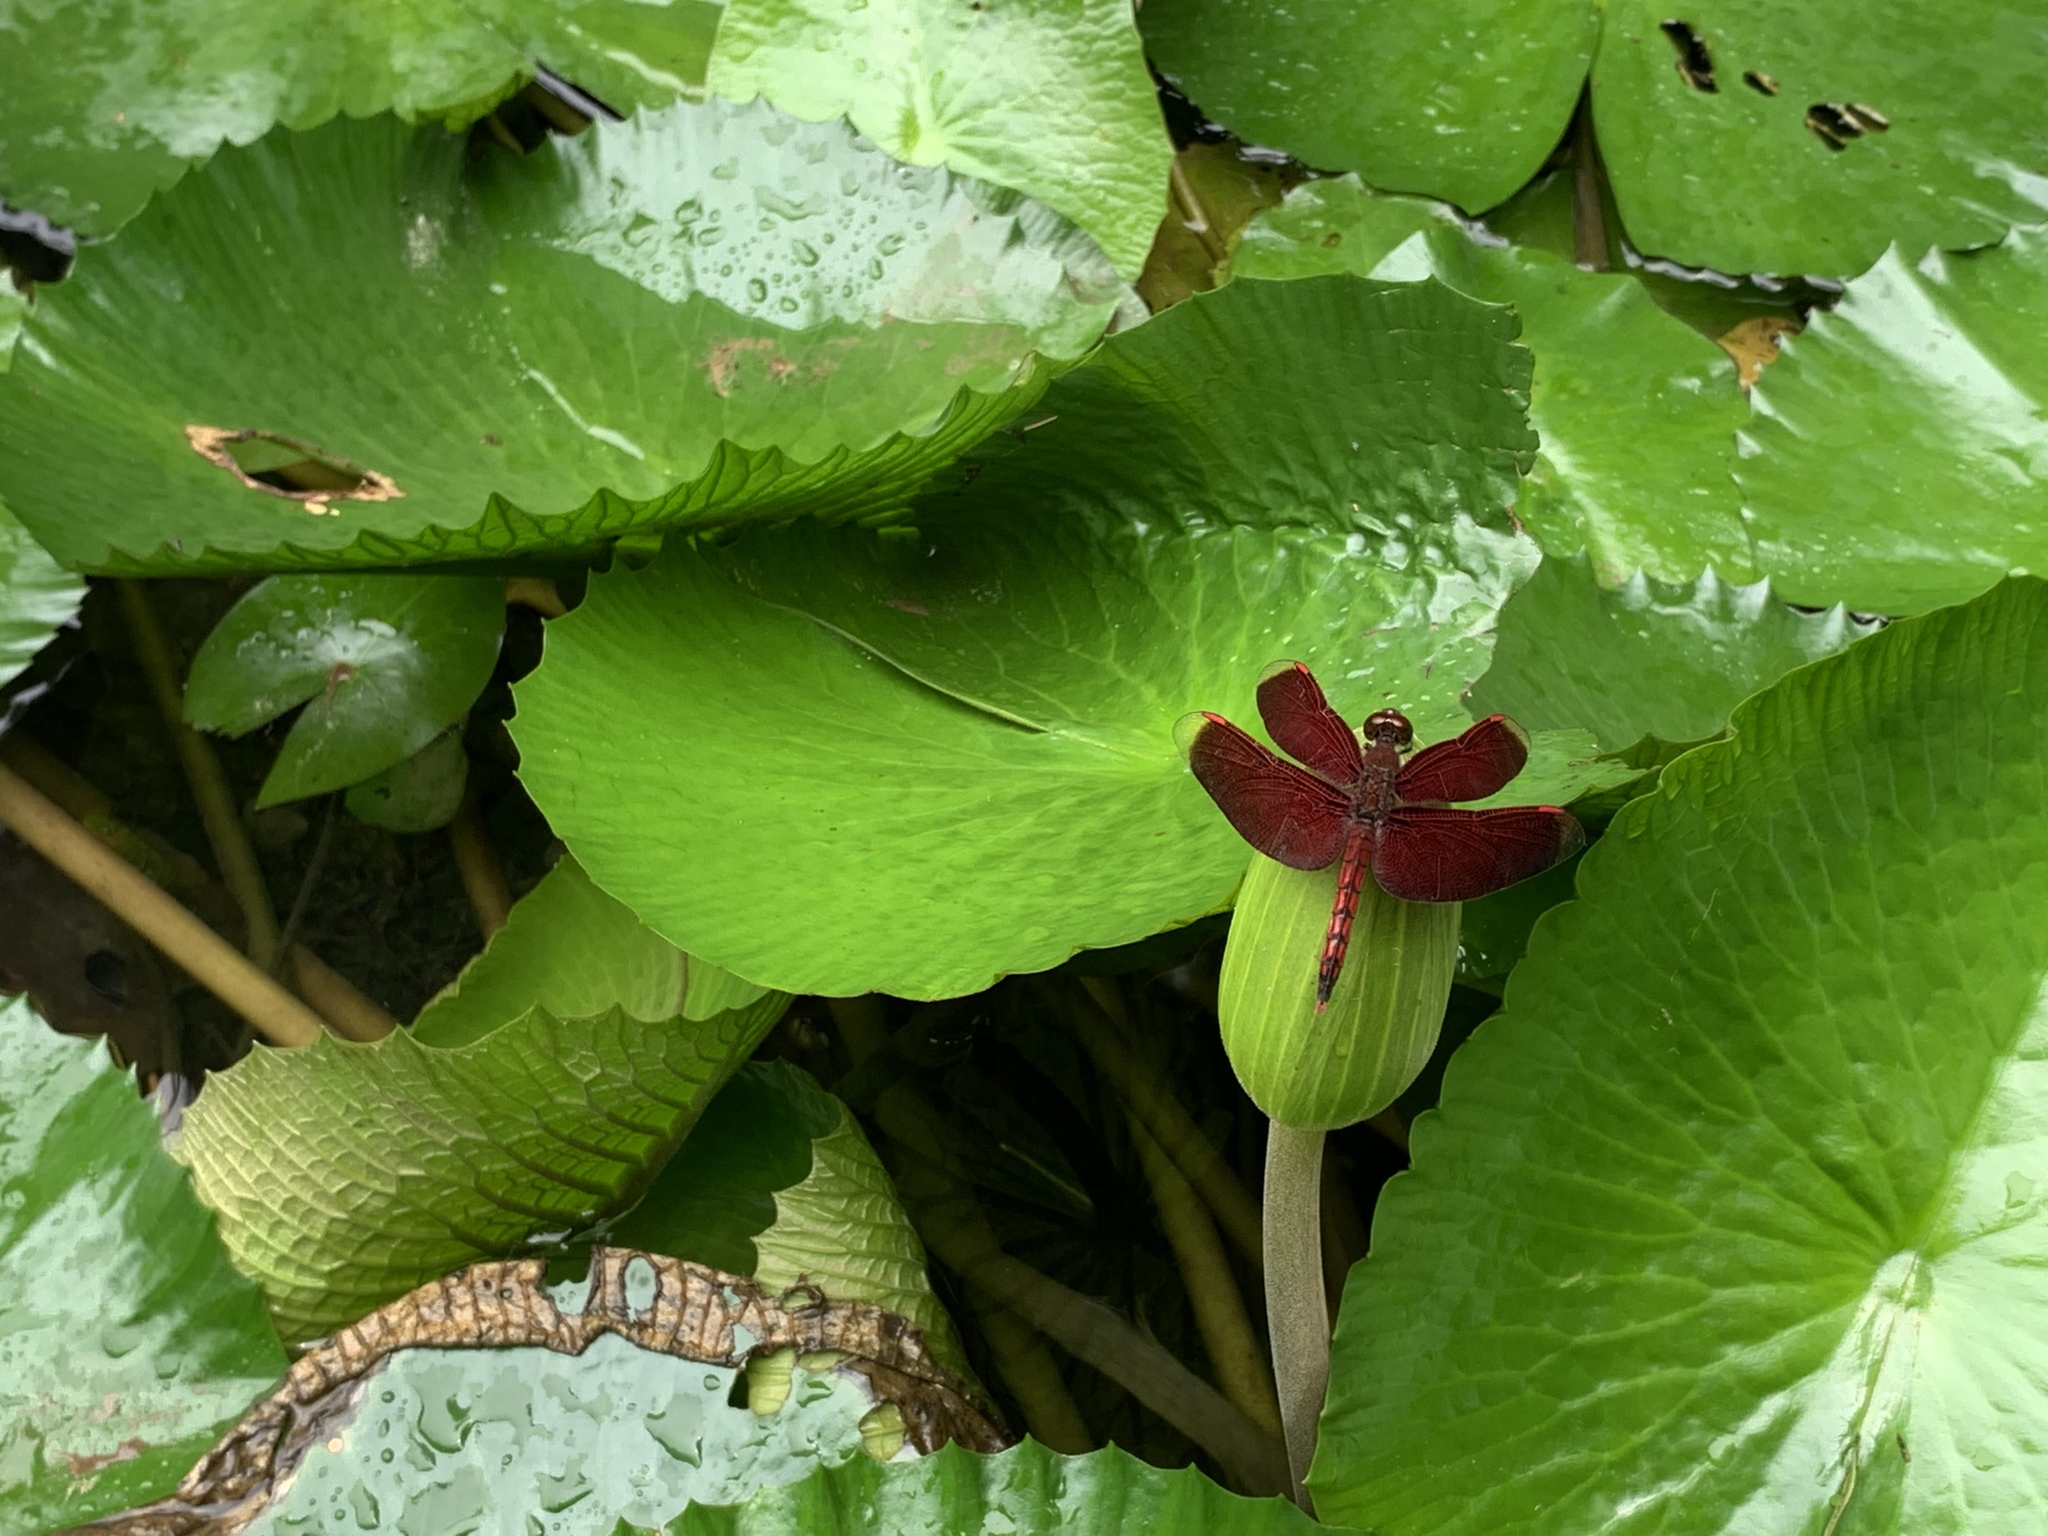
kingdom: Animalia
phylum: Arthropoda
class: Insecta
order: Odonata
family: Libellulidae
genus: Neurothemis
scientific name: Neurothemis taiwanensis
